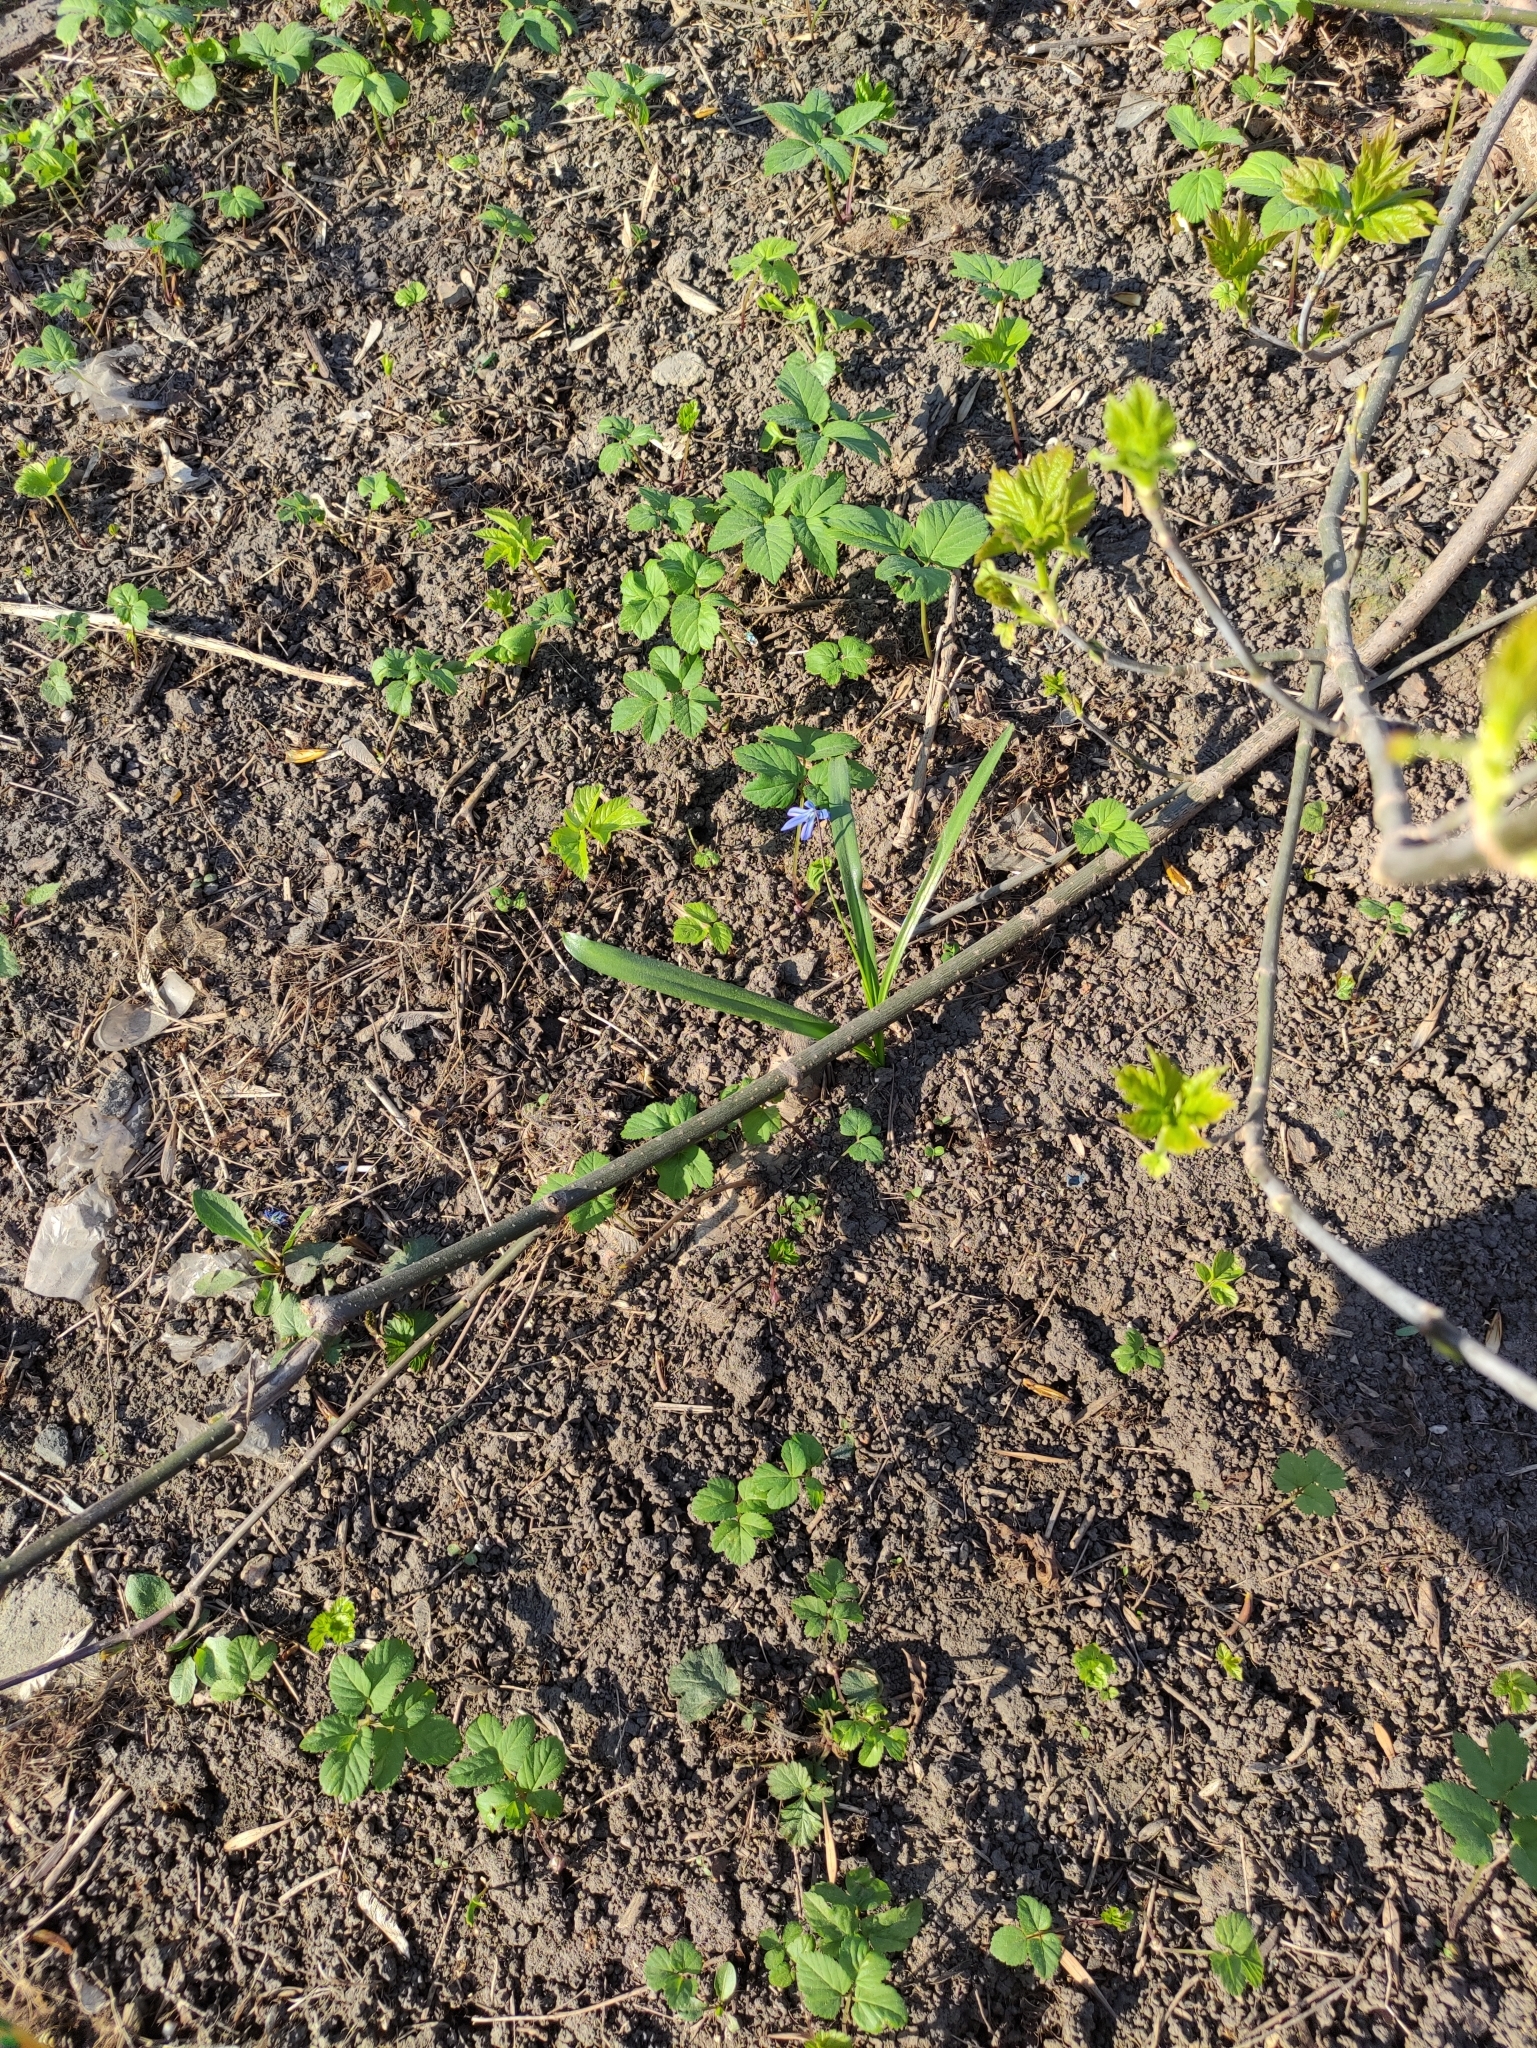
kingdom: Plantae
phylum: Tracheophyta
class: Liliopsida
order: Asparagales
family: Asparagaceae
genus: Scilla
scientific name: Scilla siberica
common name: Siberian squill
